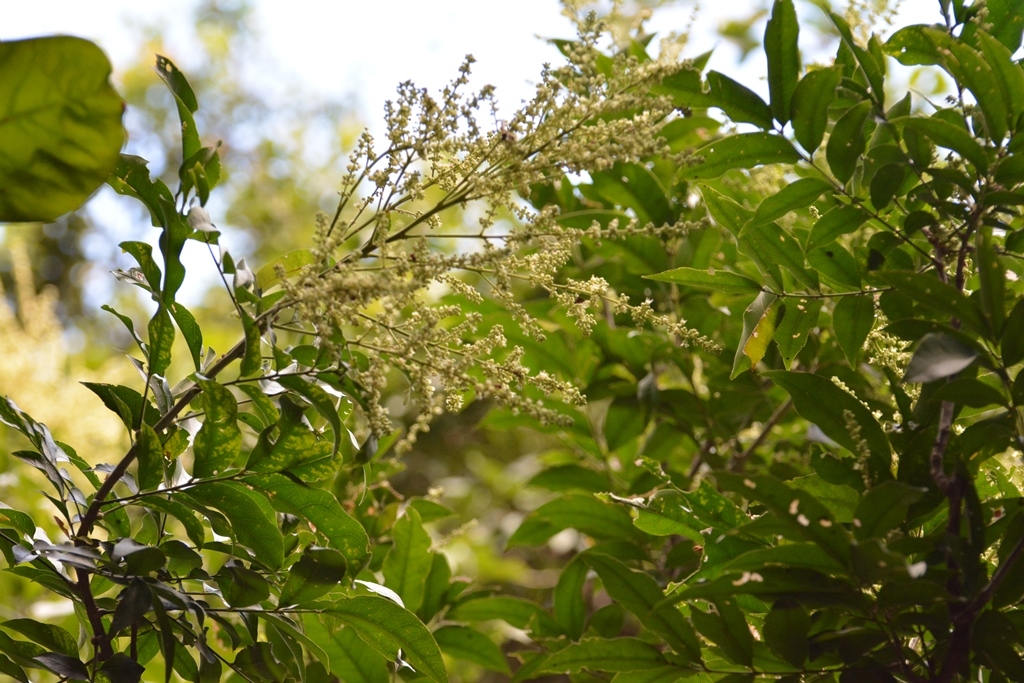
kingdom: Plantae
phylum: Tracheophyta
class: Magnoliopsida
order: Sapindales
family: Sapindaceae
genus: Matayba
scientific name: Matayba oppositifolia
